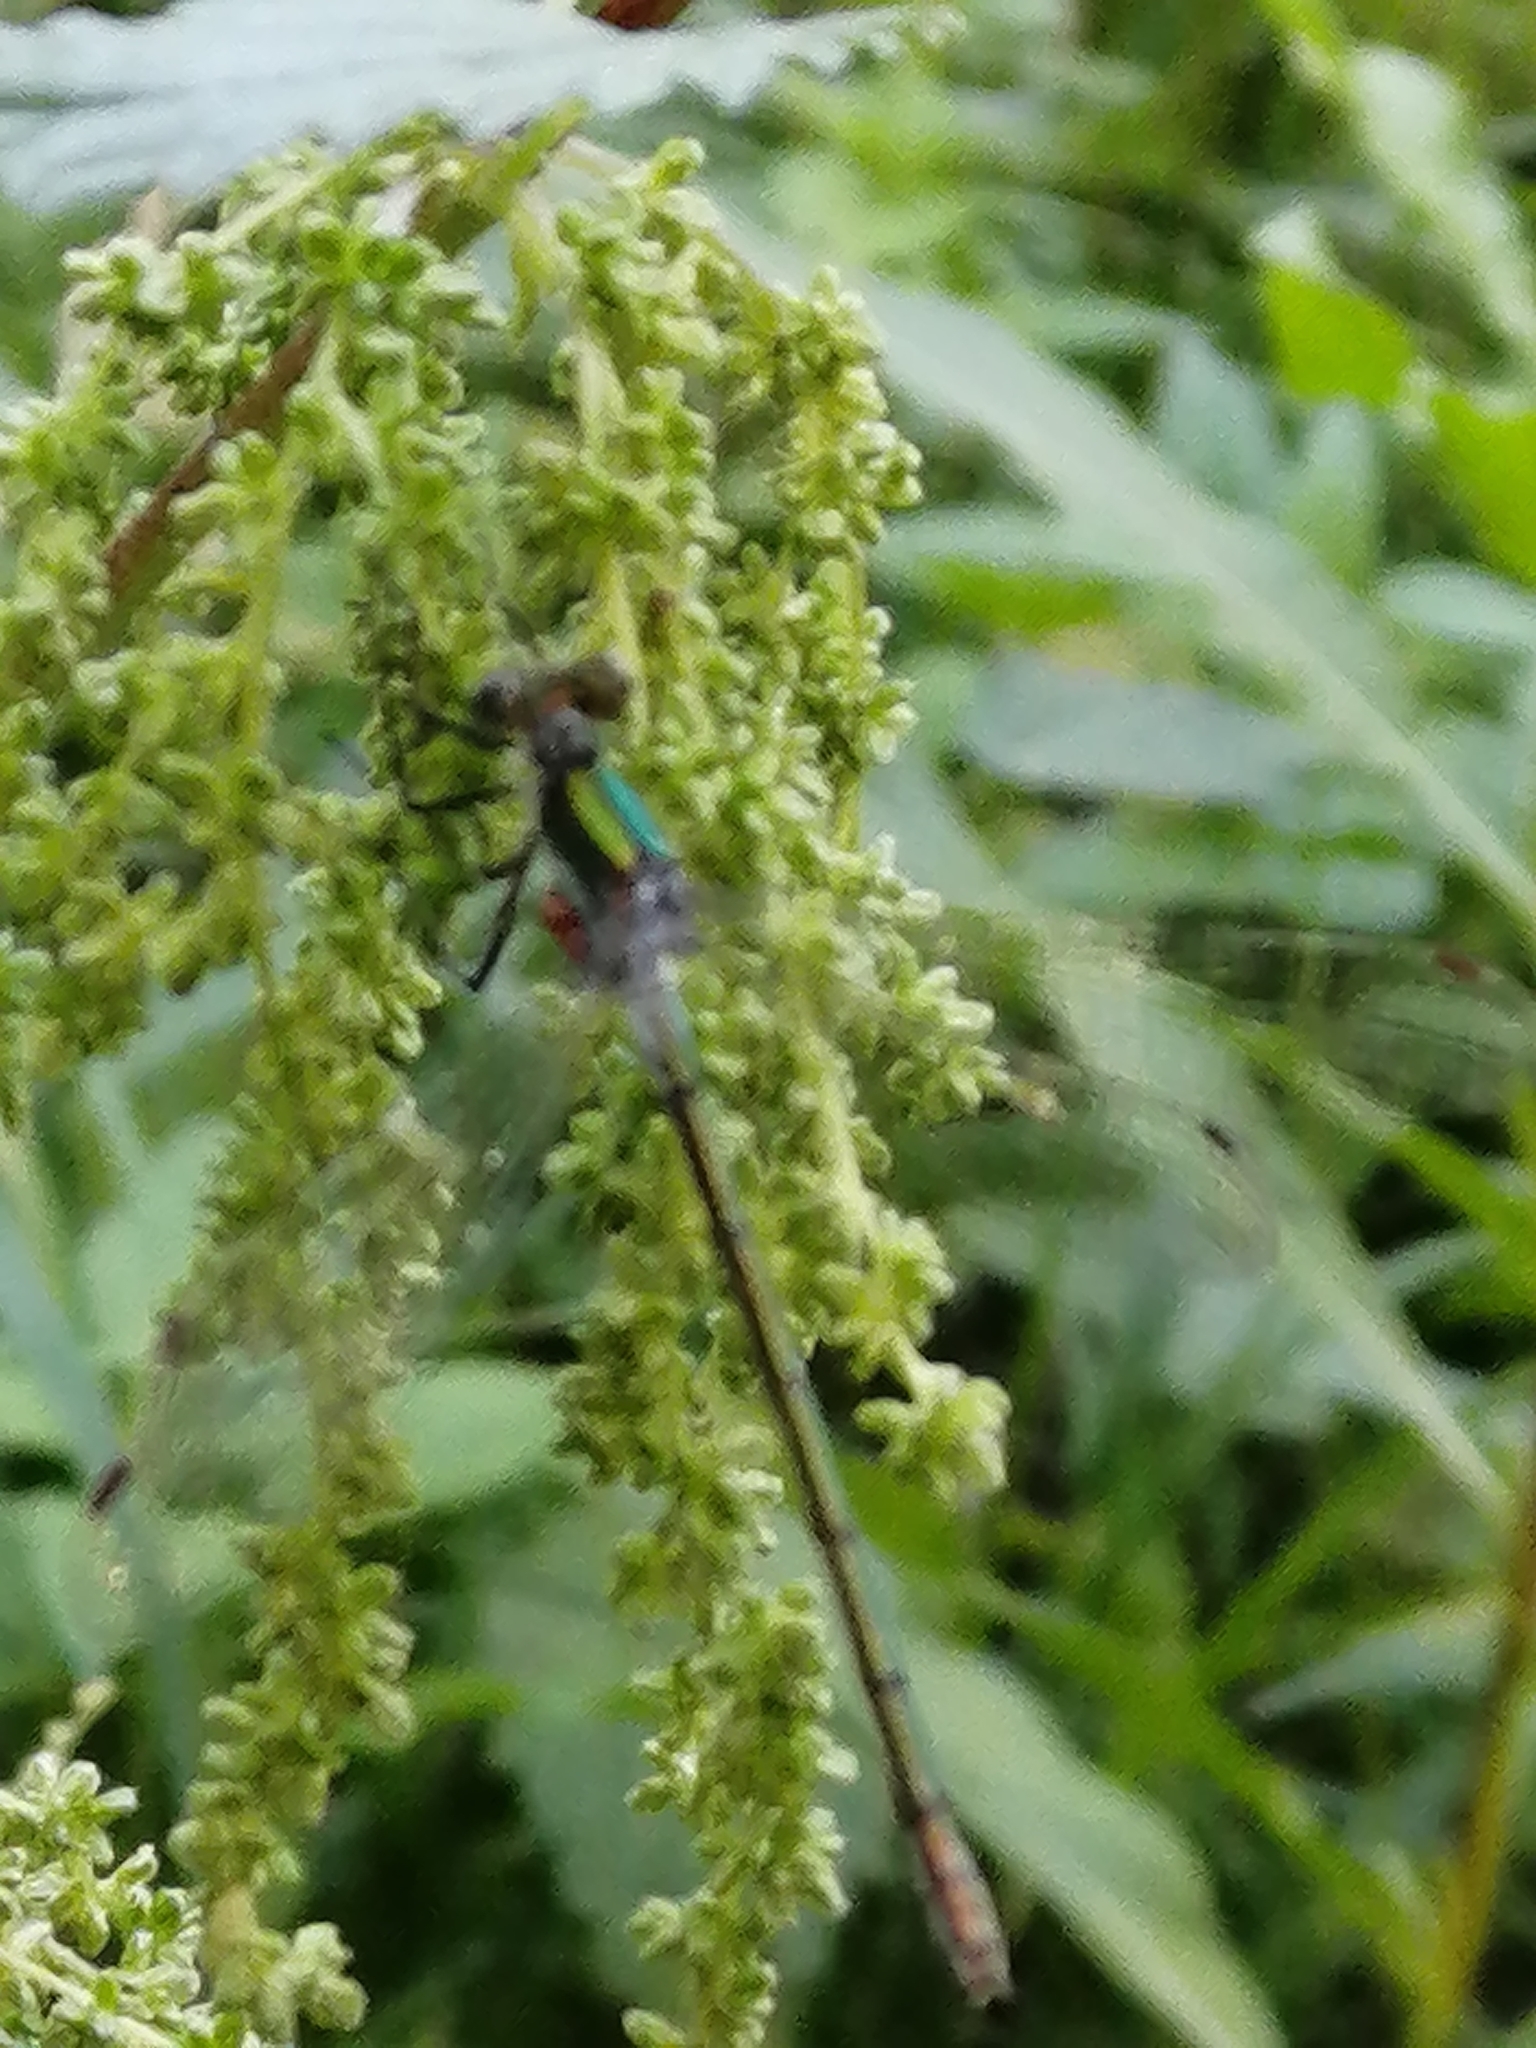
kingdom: Animalia
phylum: Arthropoda
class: Insecta
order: Odonata
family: Lestidae
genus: Lestes
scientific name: Lestes dryas
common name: Scarce emerald damselfly
